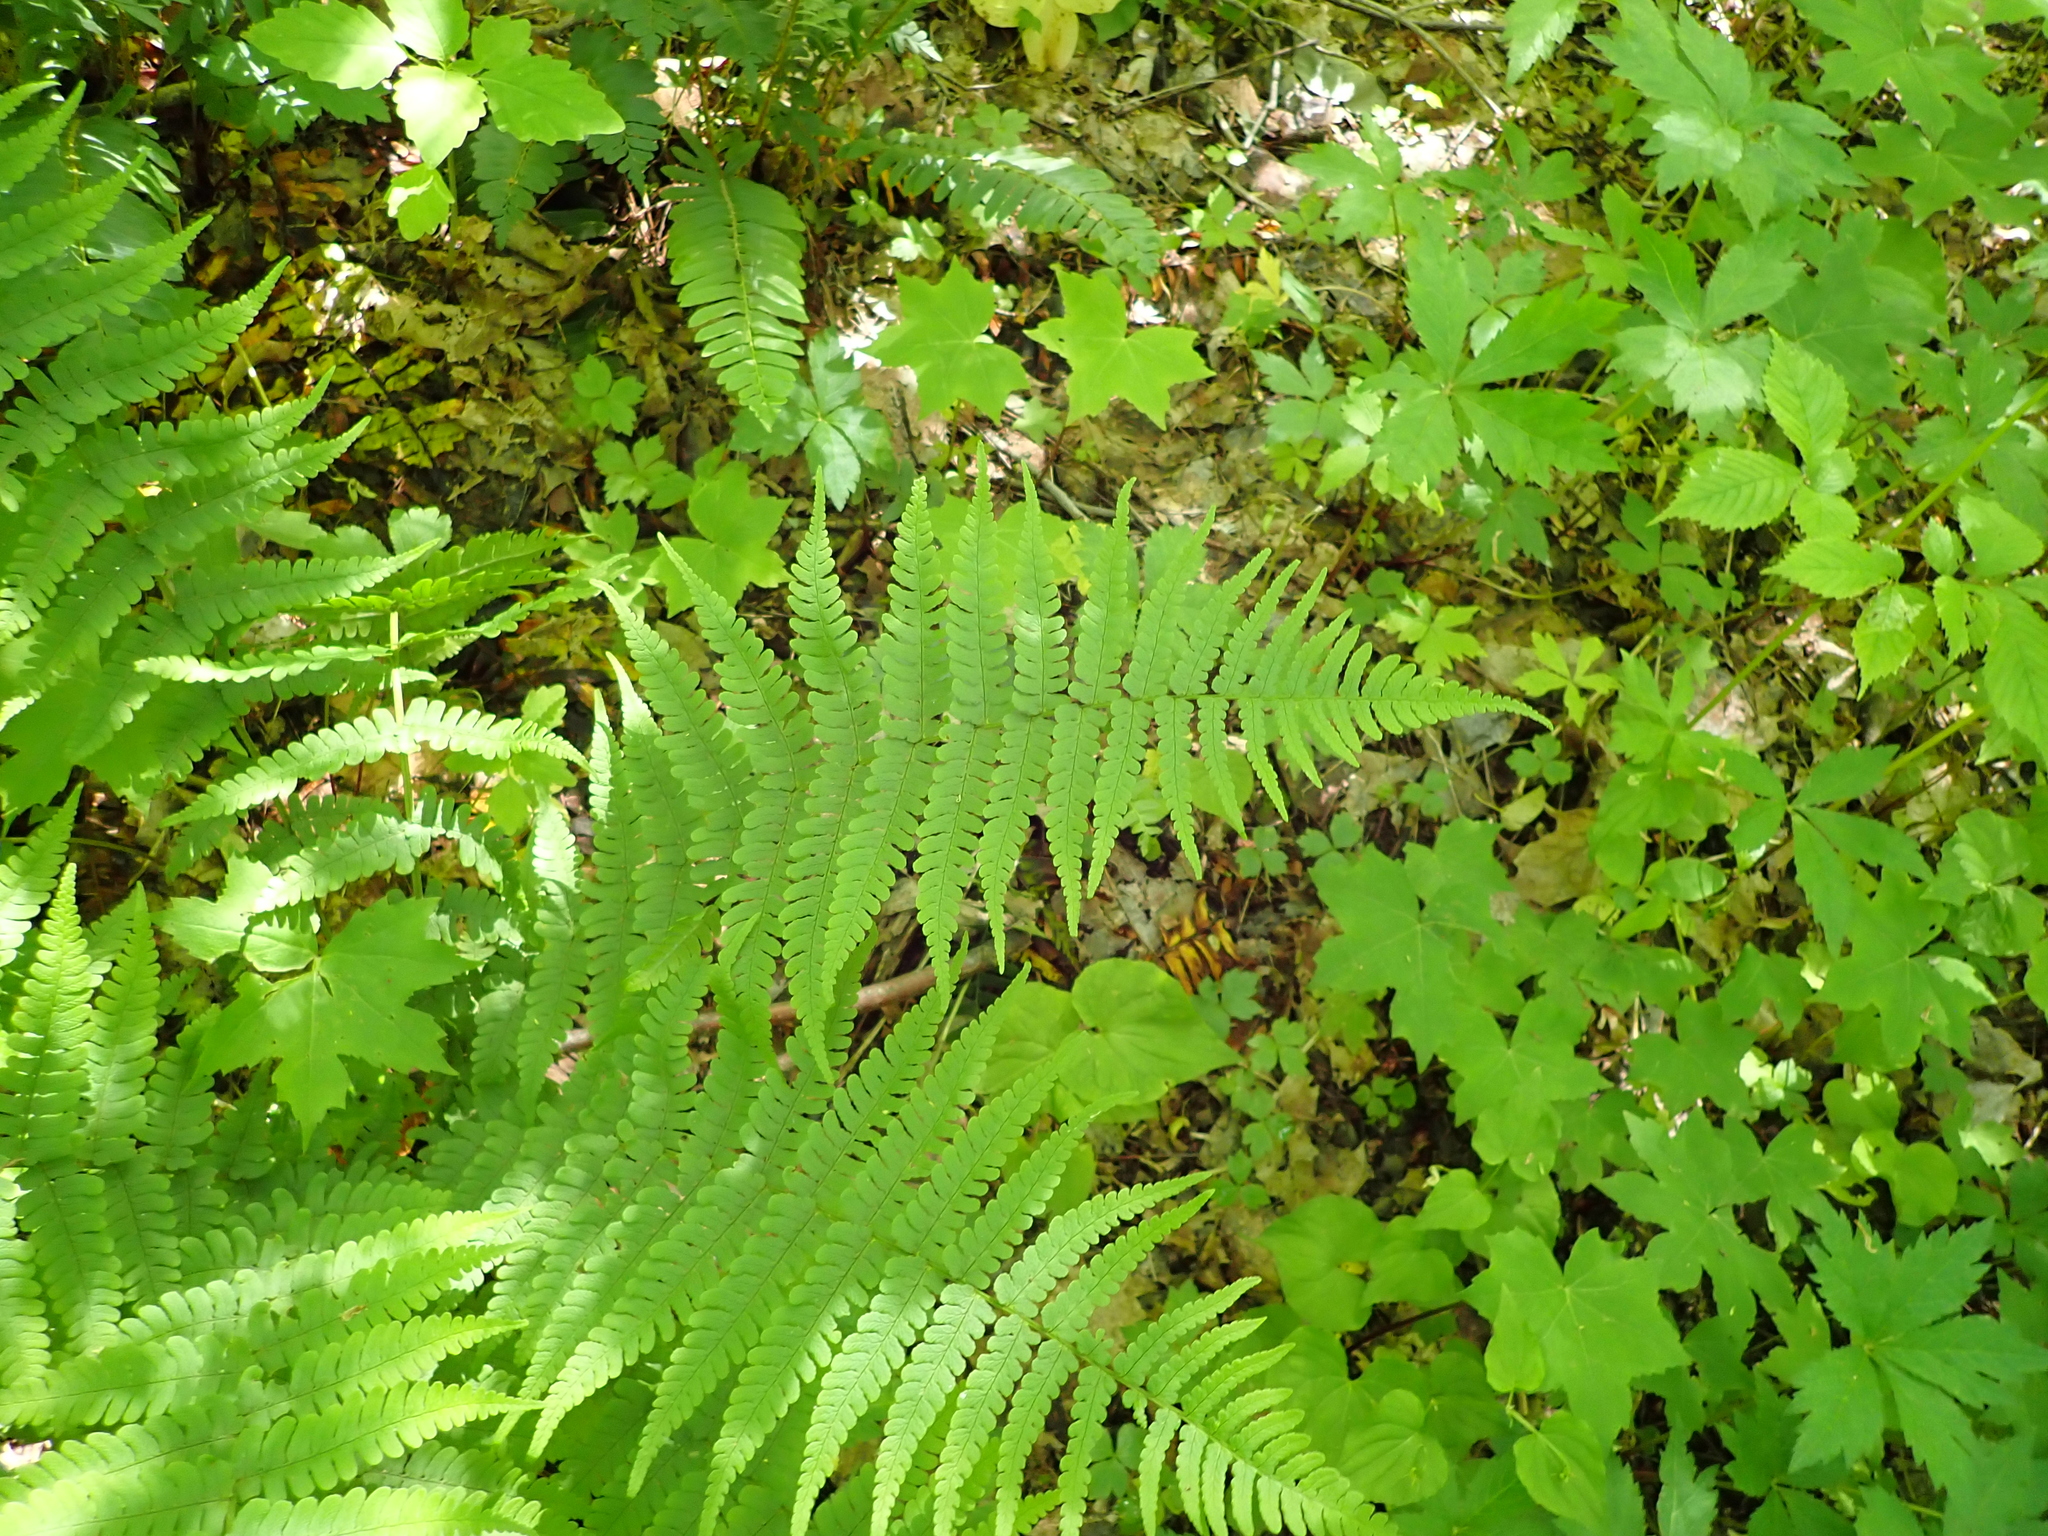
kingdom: Plantae
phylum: Tracheophyta
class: Polypodiopsida
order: Polypodiales
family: Dryopteridaceae
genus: Dryopteris
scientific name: Dryopteris marginalis
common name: Marginal wood fern
